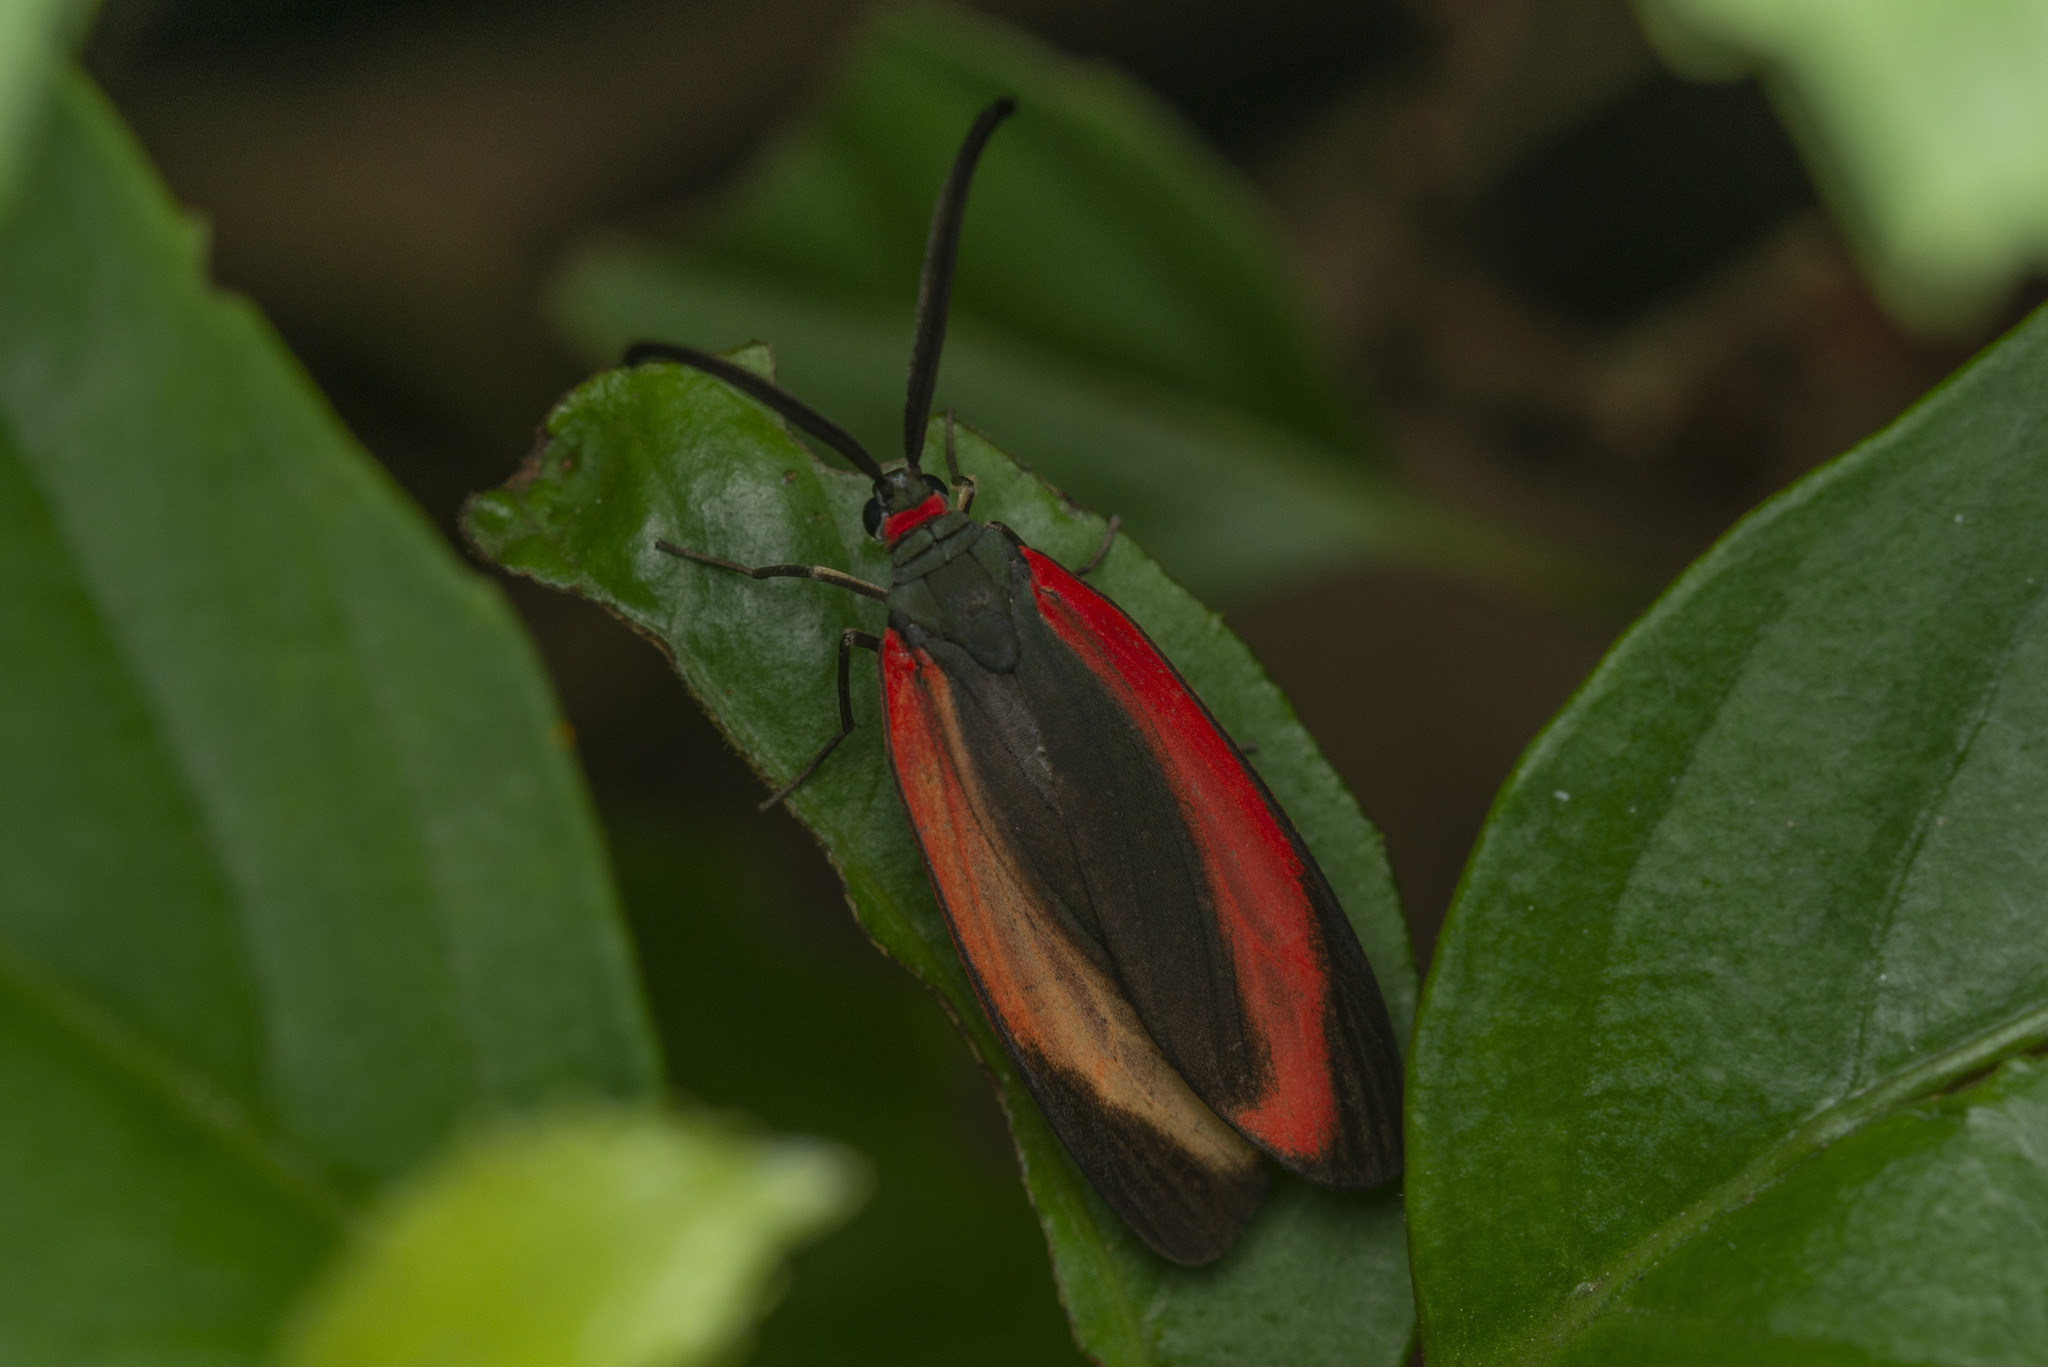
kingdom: Animalia
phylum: Arthropoda
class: Insecta
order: Lepidoptera
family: Zygaenidae
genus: Retina
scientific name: Retina rubrivitta
